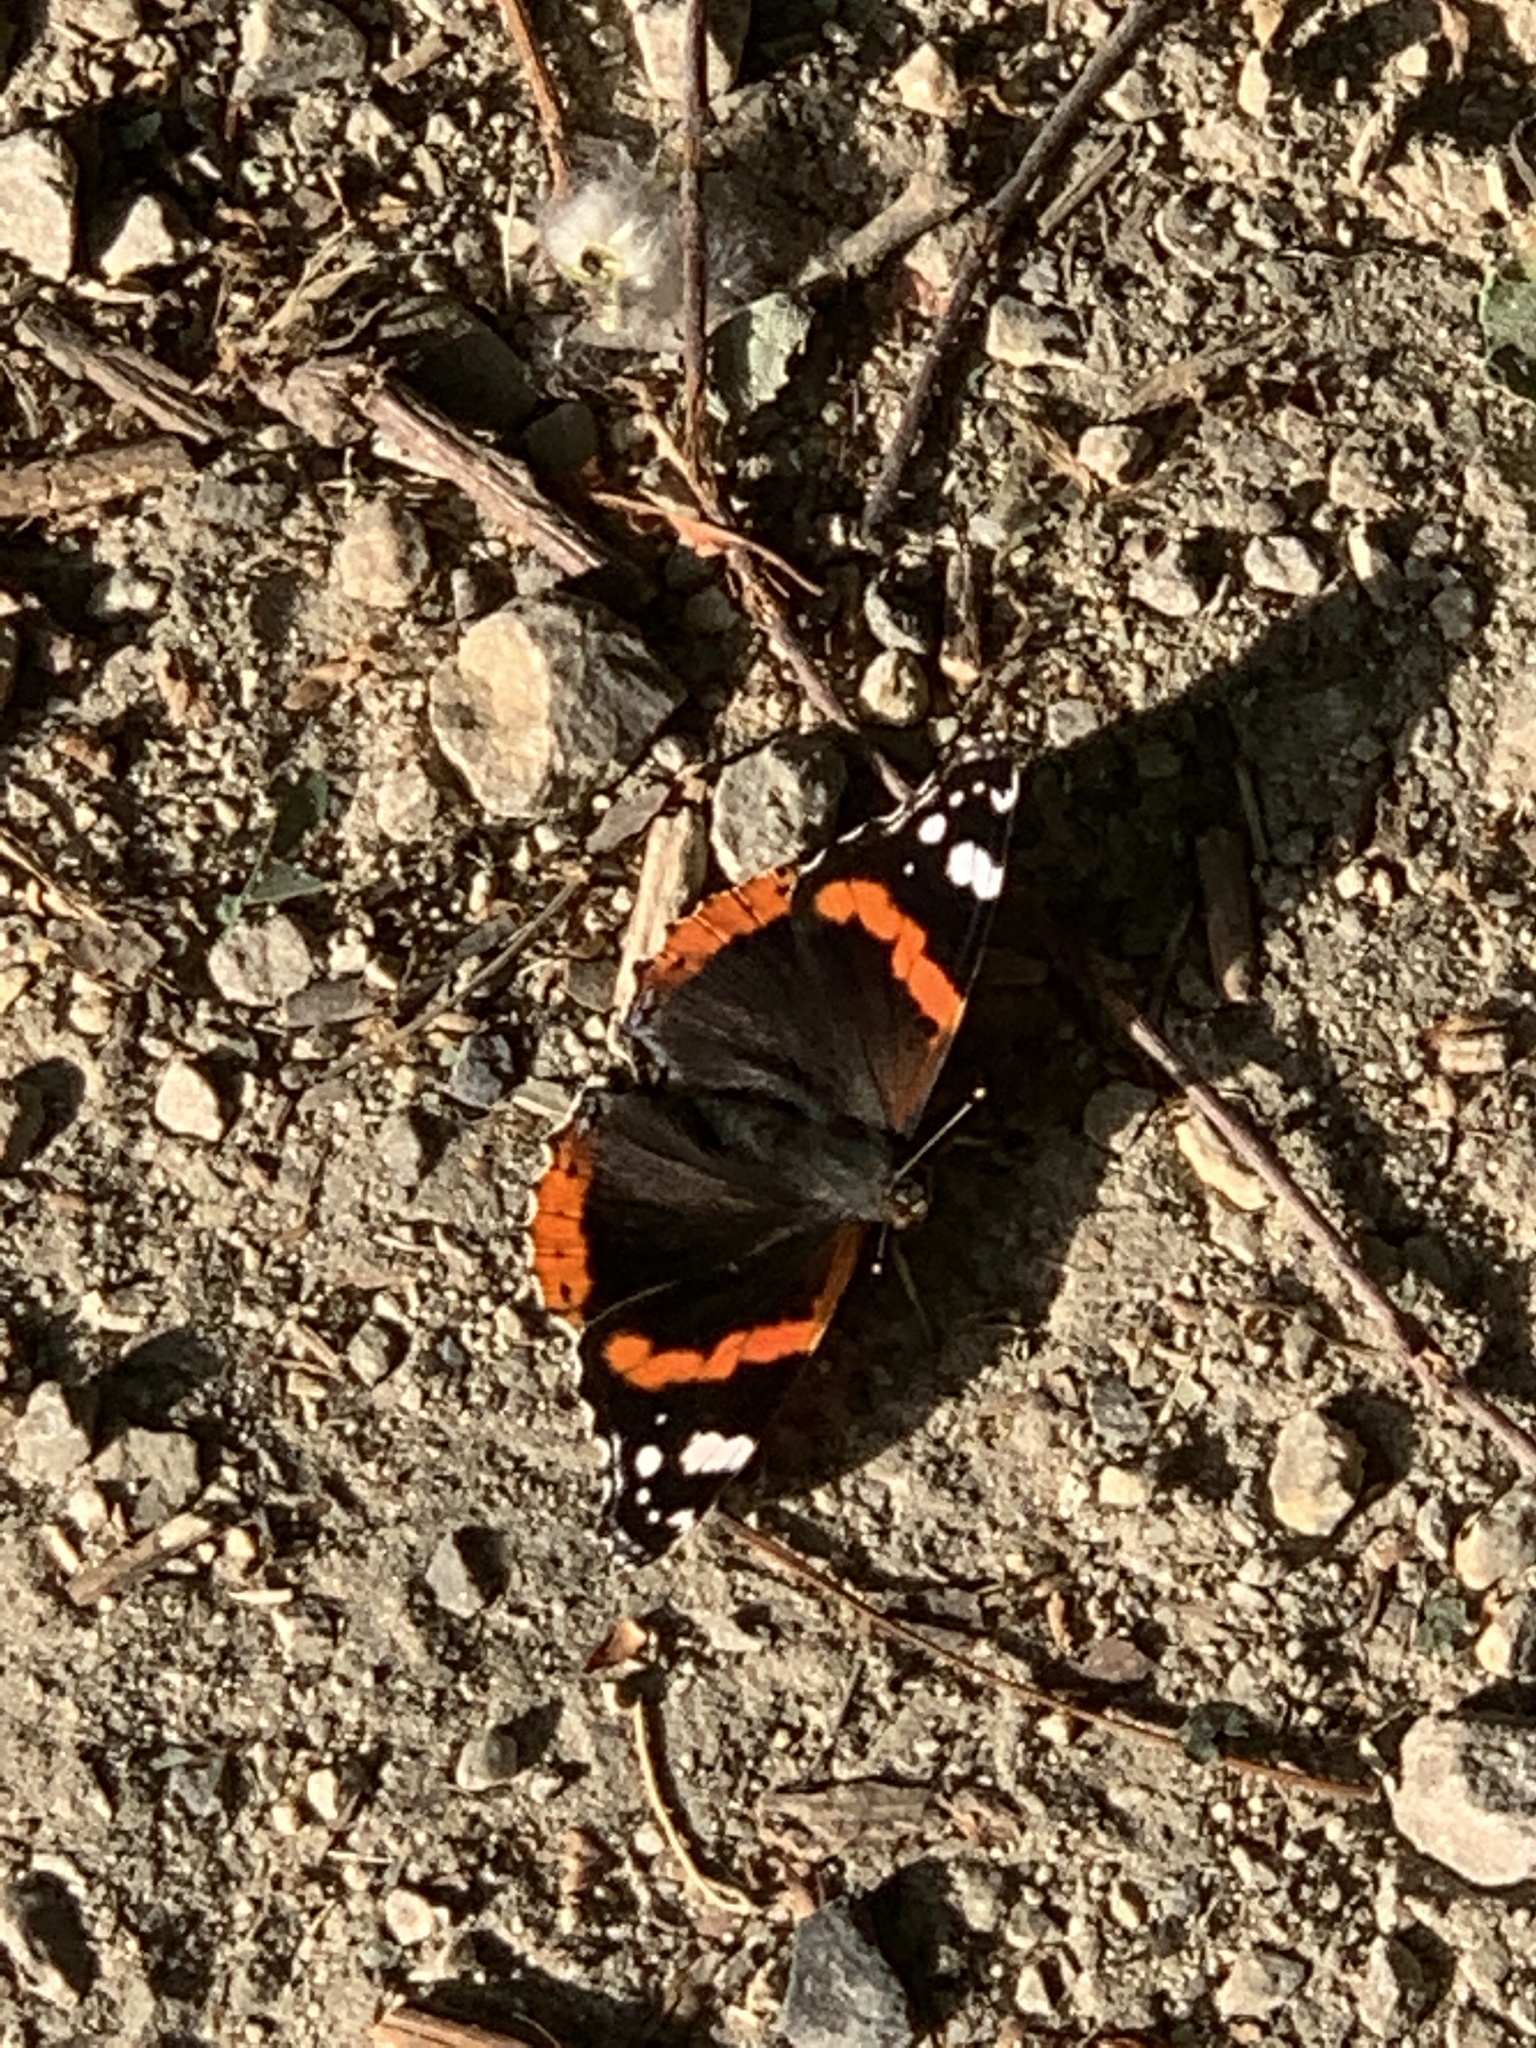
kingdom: Animalia
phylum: Arthropoda
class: Insecta
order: Lepidoptera
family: Nymphalidae
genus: Vanessa
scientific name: Vanessa atalanta
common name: Red admiral
